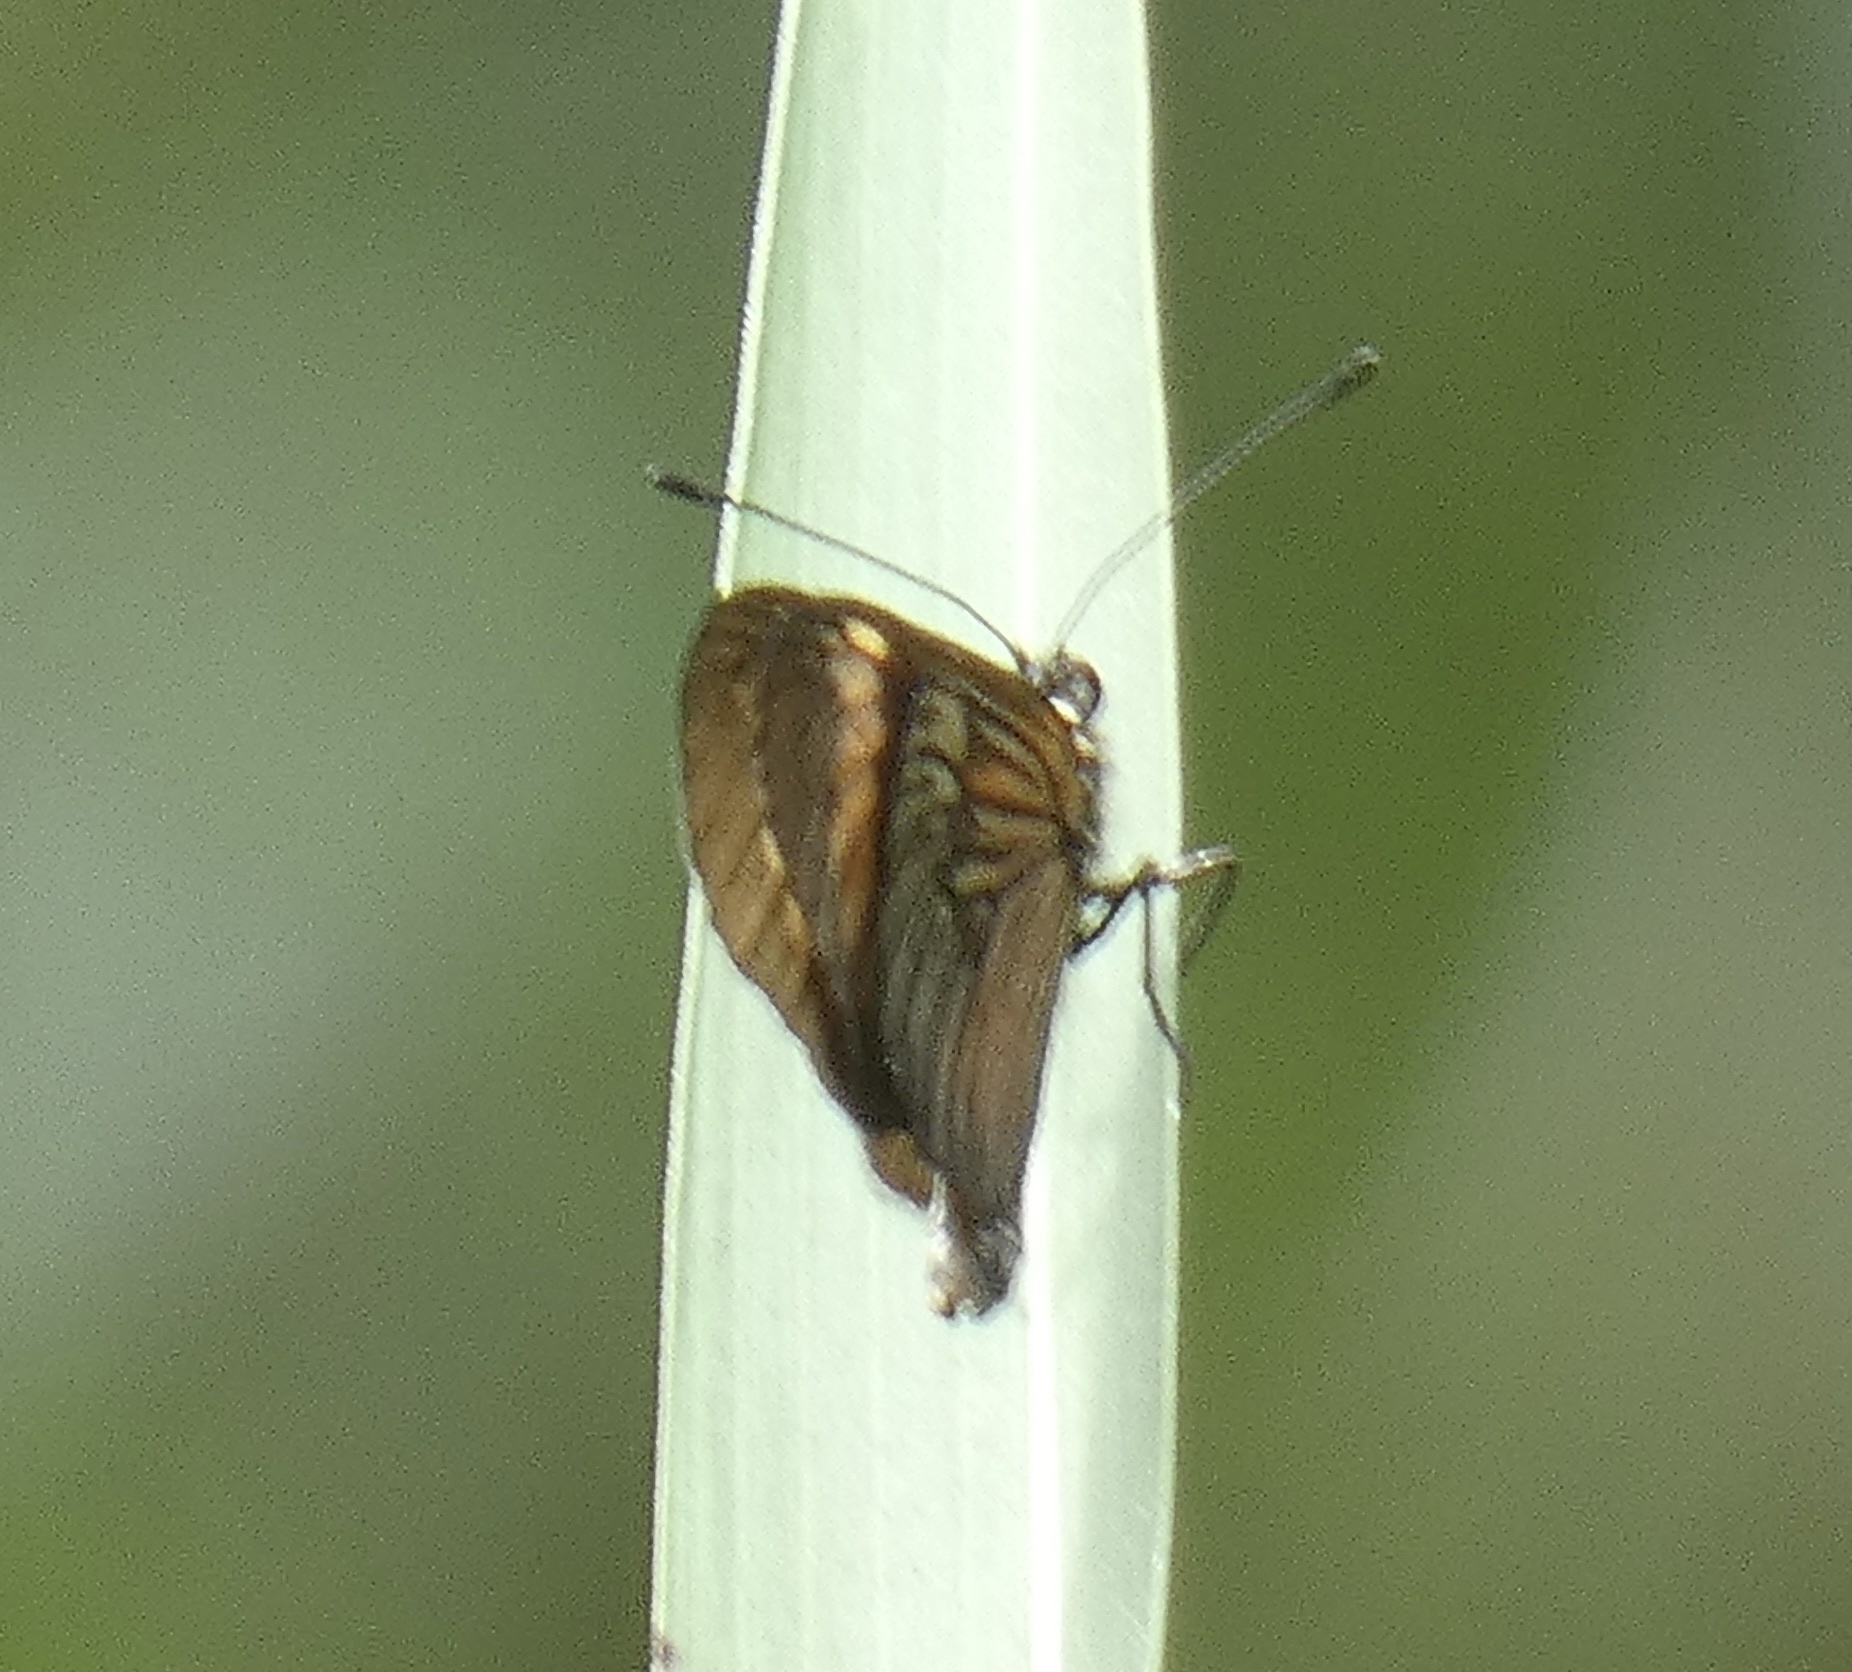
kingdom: Animalia
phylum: Arthropoda
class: Insecta
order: Lepidoptera
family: Nymphalidae
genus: Actinote
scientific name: Actinote pellenea
